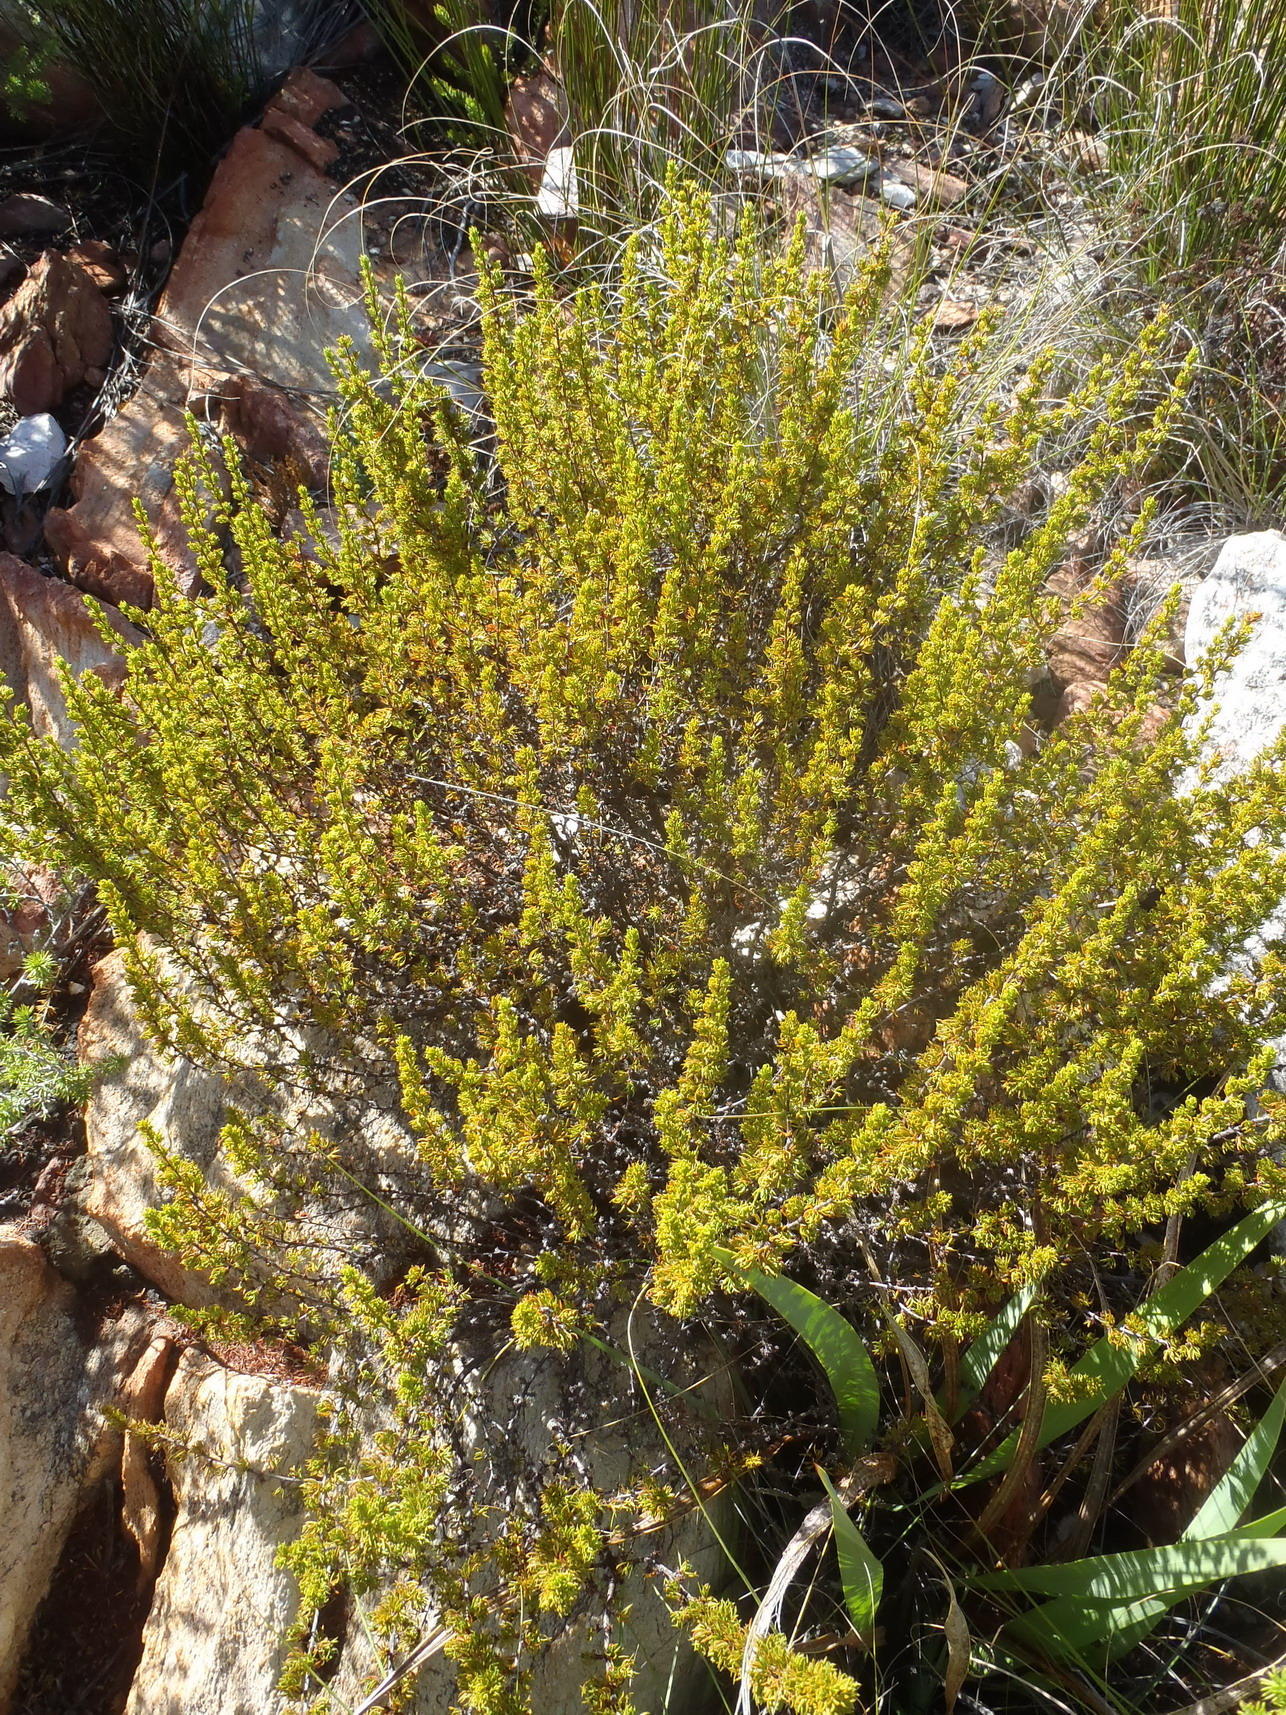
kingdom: Plantae
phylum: Tracheophyta
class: Magnoliopsida
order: Rosales
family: Rosaceae
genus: Cliffortia
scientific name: Cliffortia arcuata
